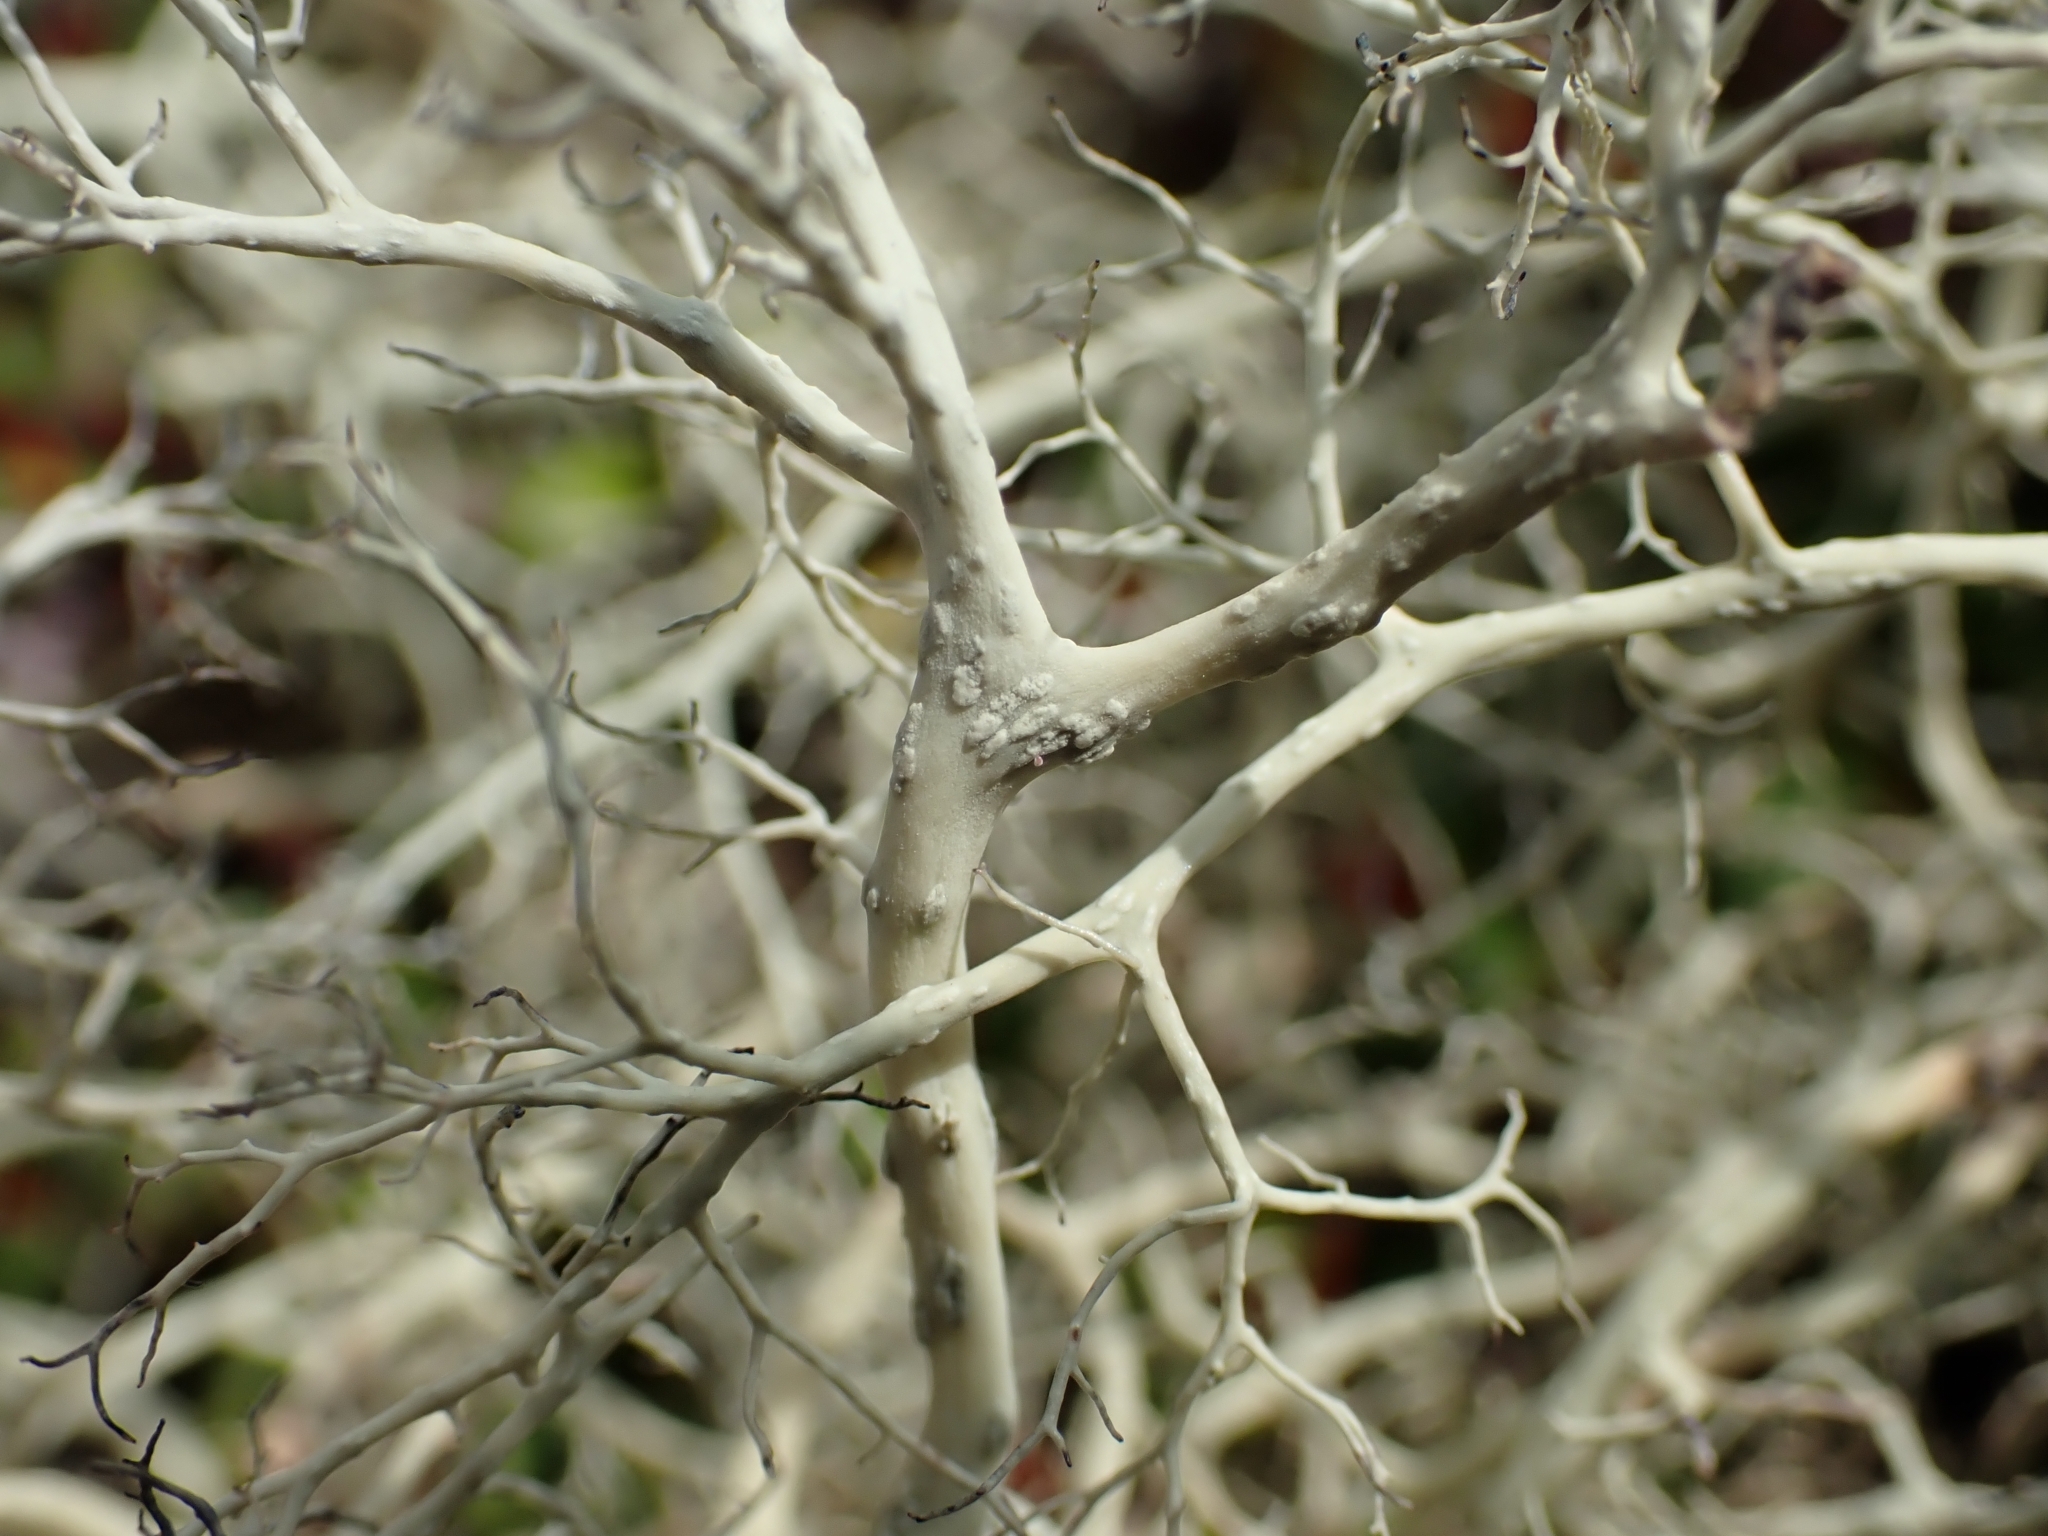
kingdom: Fungi
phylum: Ascomycota
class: Lecanoromycetes
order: Lecanorales
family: Parmeliaceae
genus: Alectoria
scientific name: Alectoria ochroleuca
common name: Alpine sulphur-tresses
